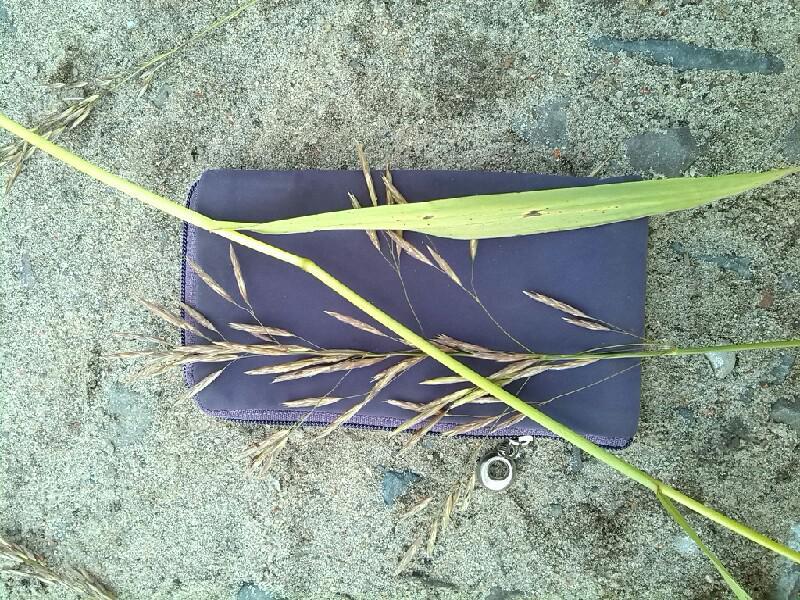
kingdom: Plantae
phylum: Tracheophyta
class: Liliopsida
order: Poales
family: Poaceae
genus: Bromus
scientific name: Bromus inermis
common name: Smooth brome
